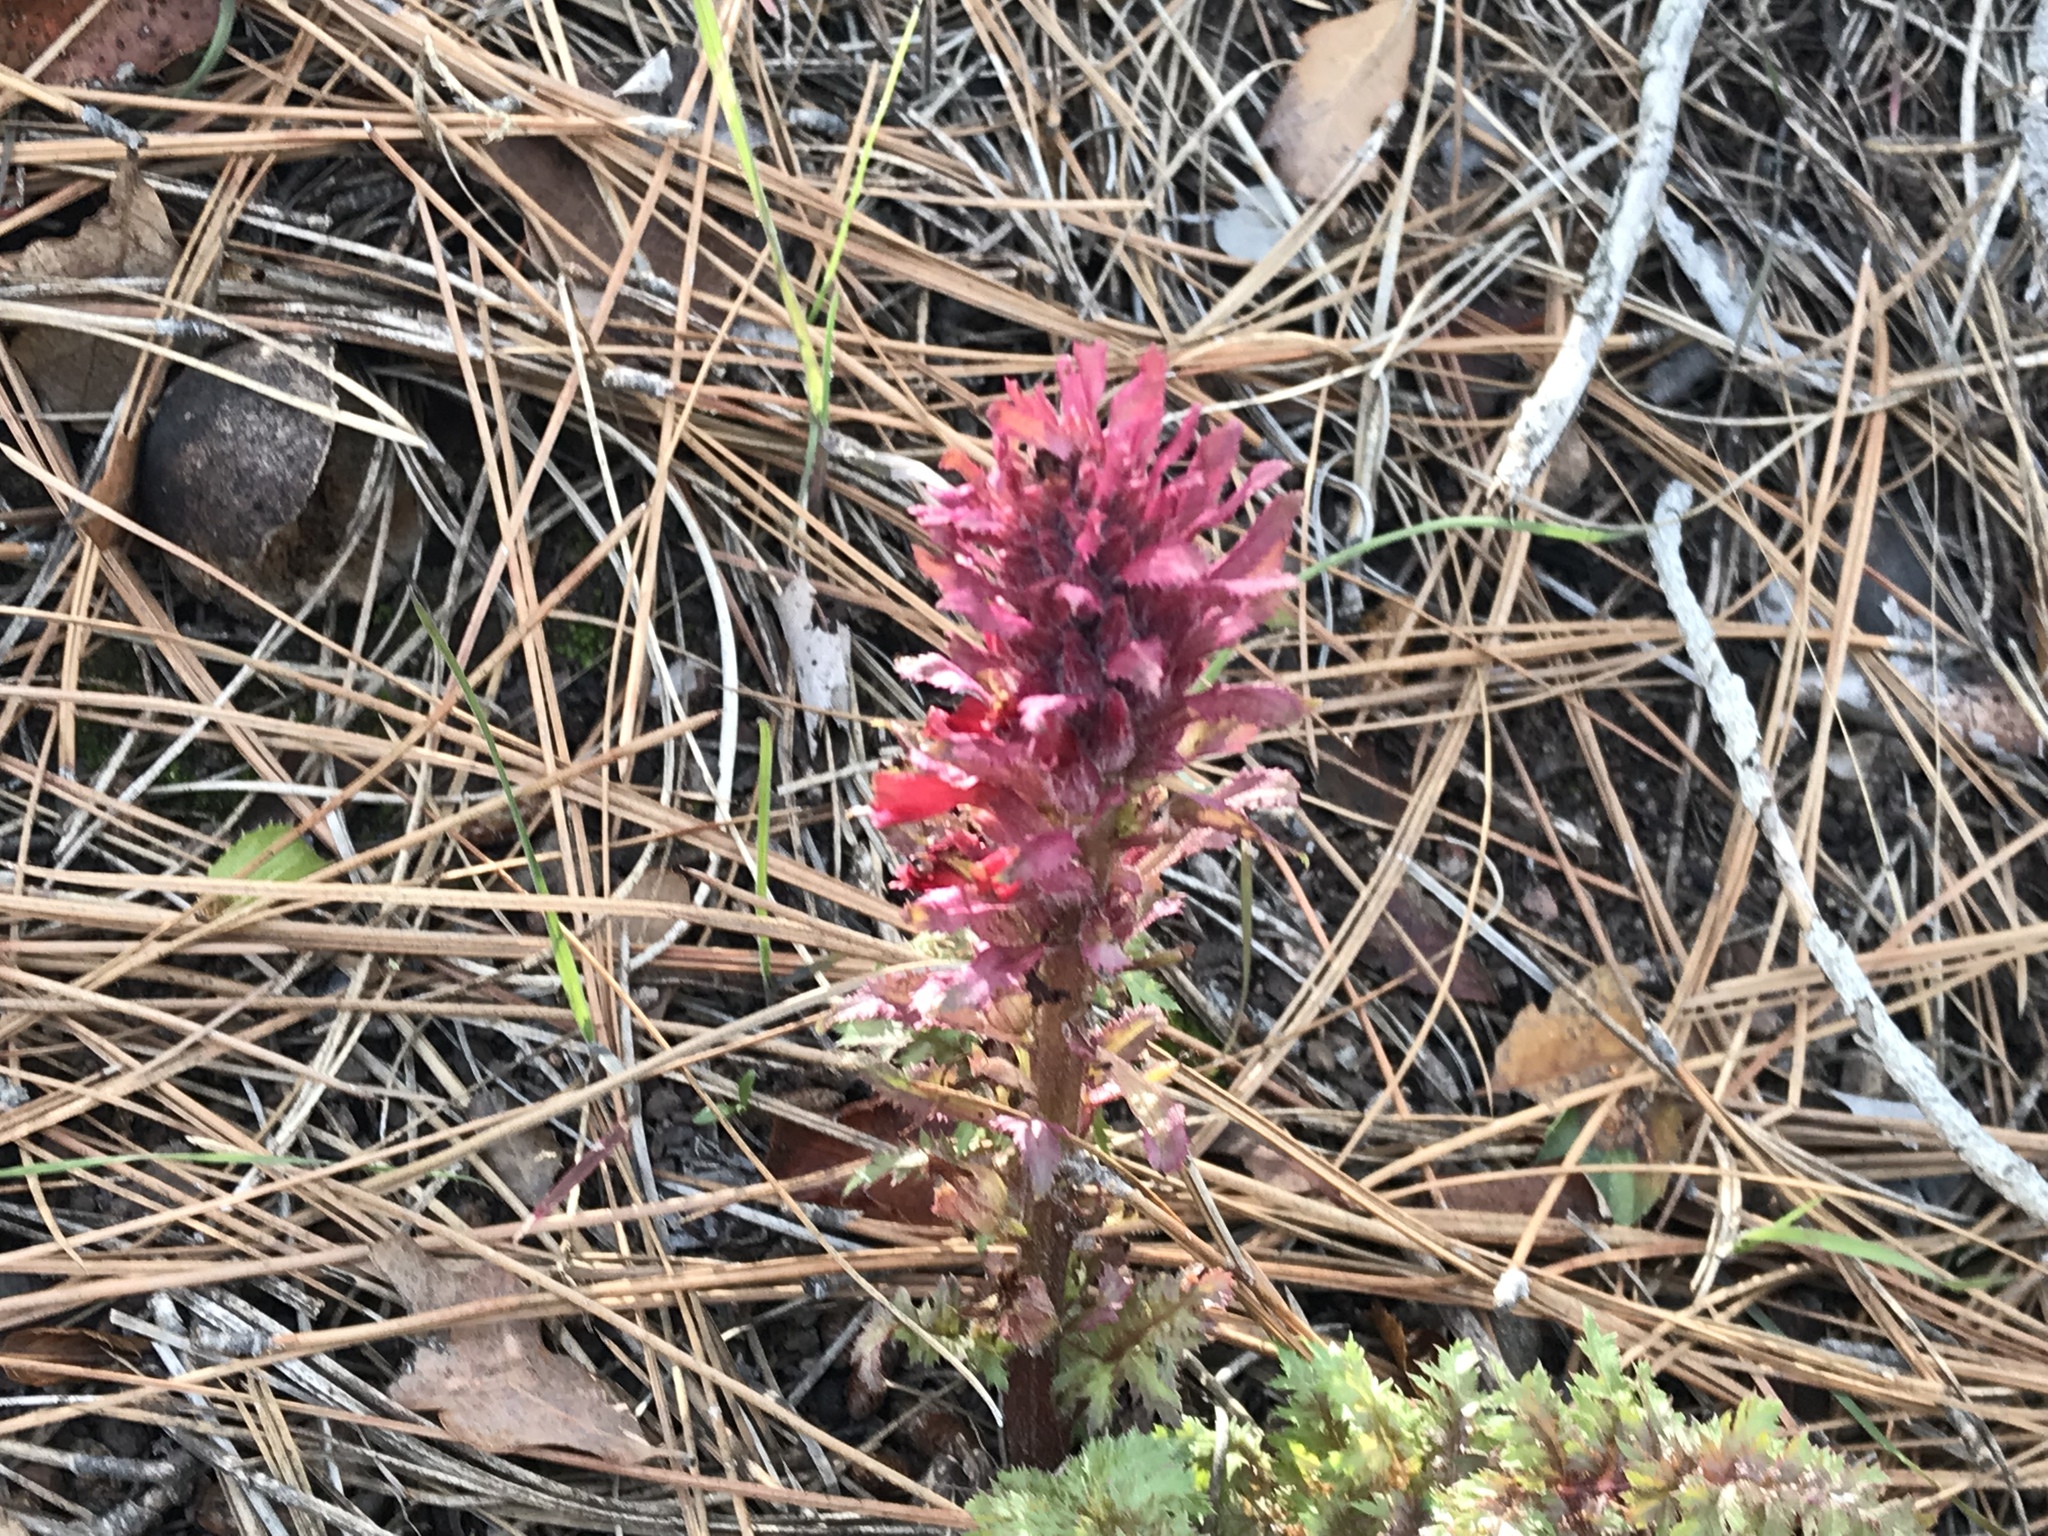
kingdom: Plantae
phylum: Tracheophyta
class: Magnoliopsida
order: Lamiales
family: Orobanchaceae
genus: Pedicularis
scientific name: Pedicularis densiflora
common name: Indian warrior
